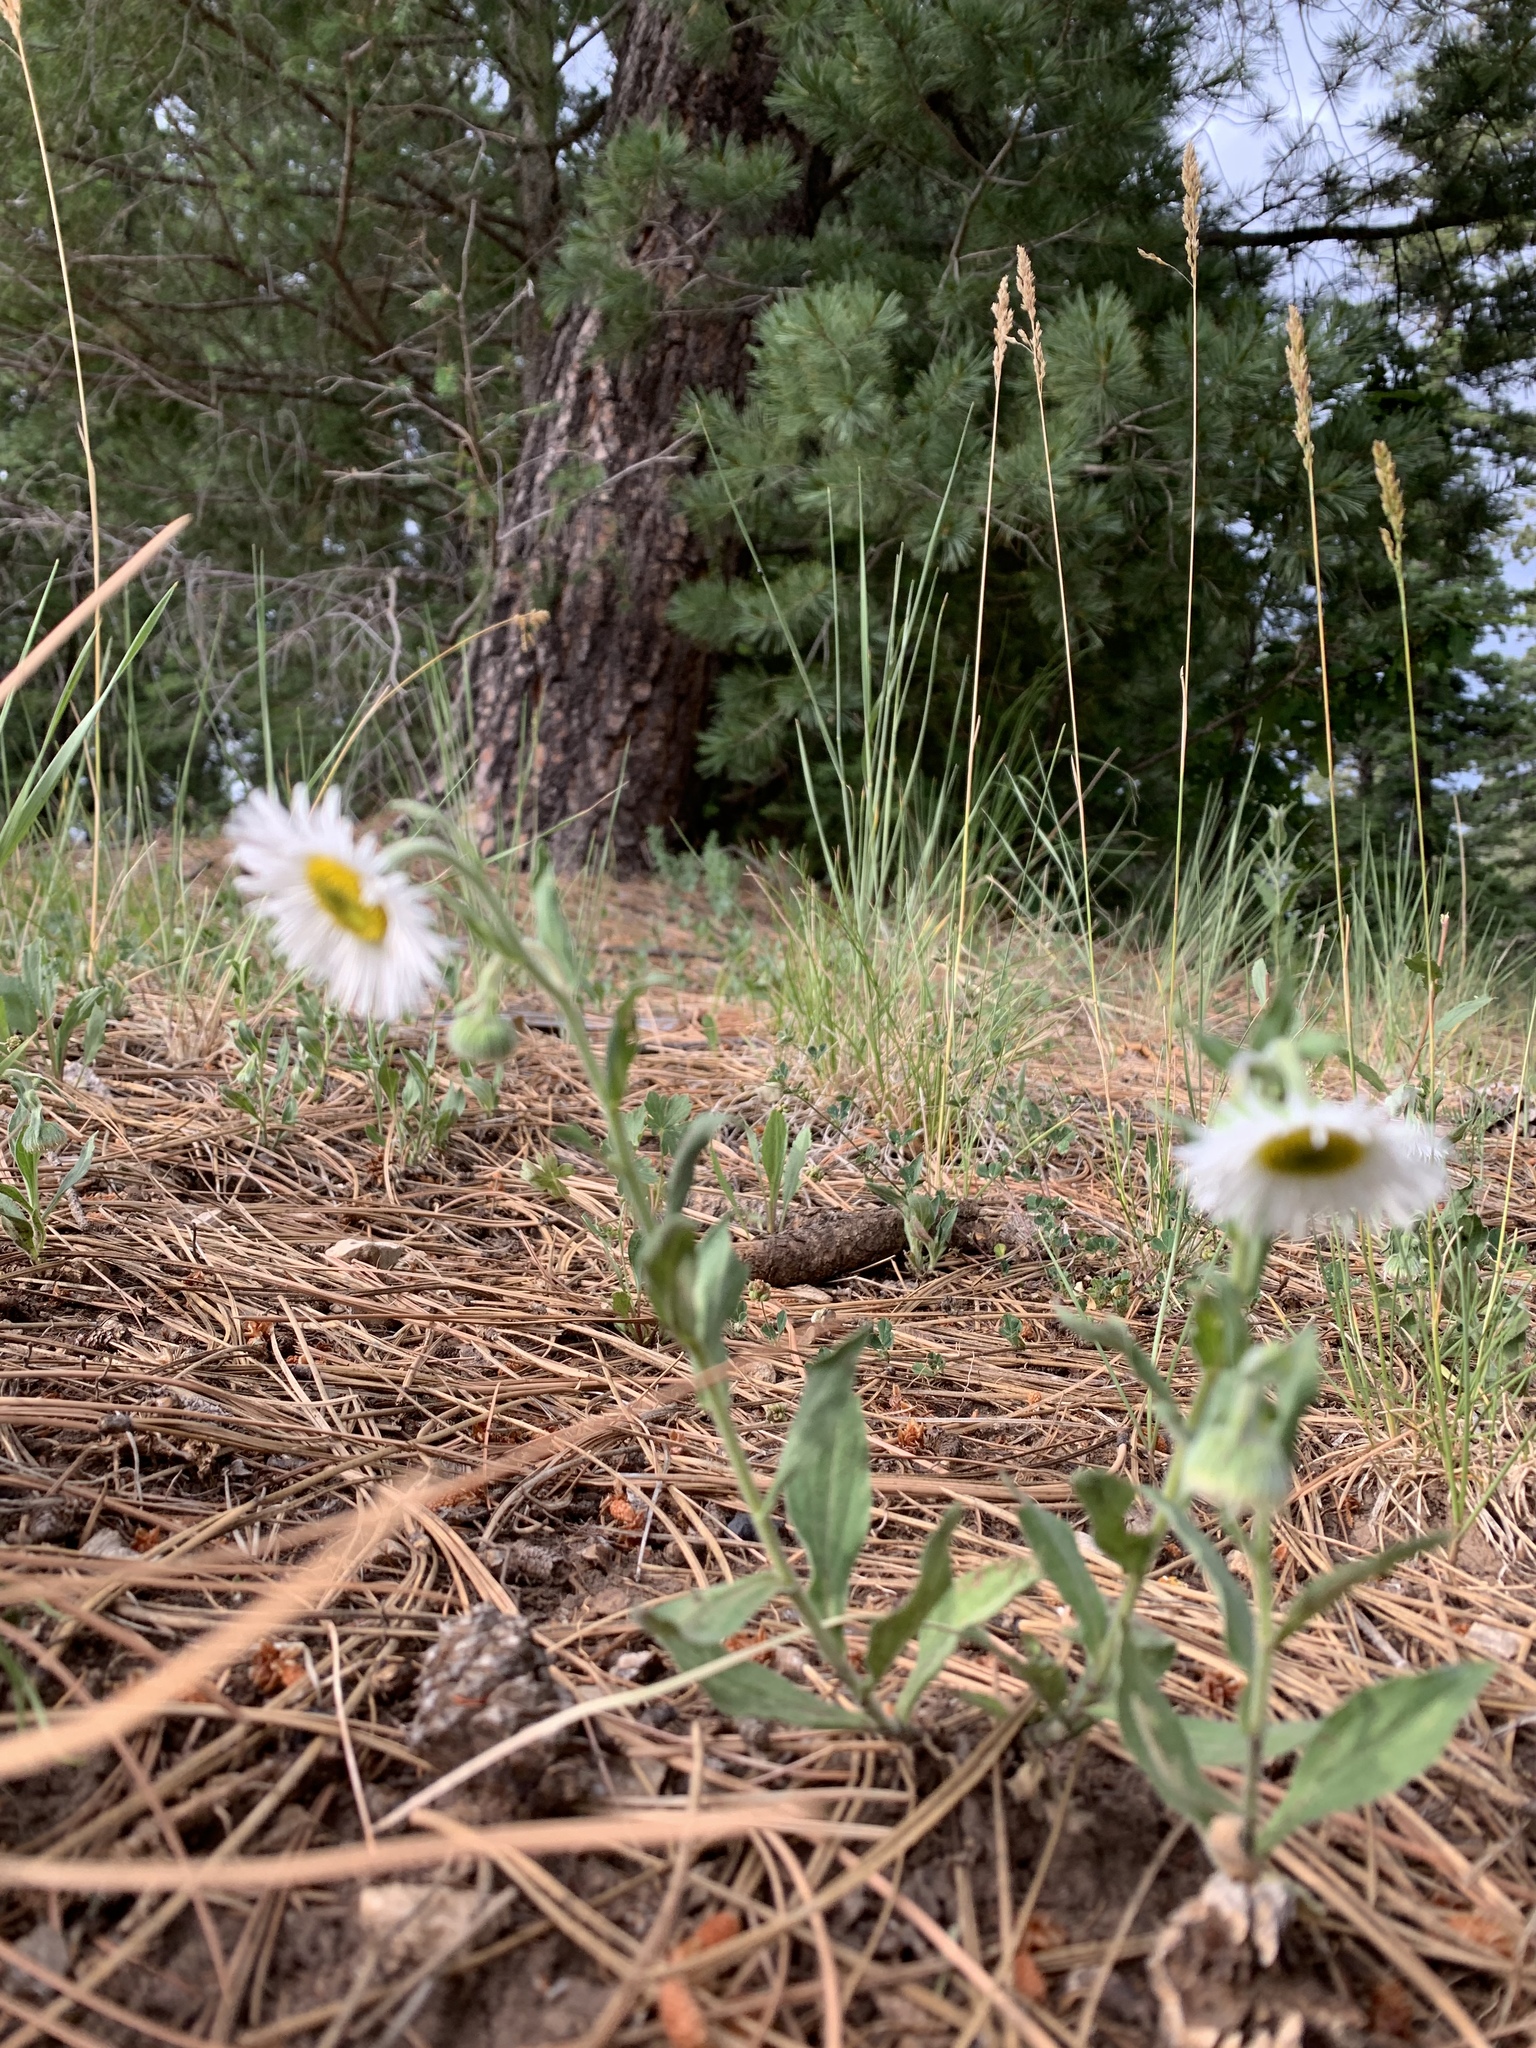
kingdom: Plantae
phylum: Tracheophyta
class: Magnoliopsida
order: Asterales
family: Asteraceae
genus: Erigeron
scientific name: Erigeron elatior
